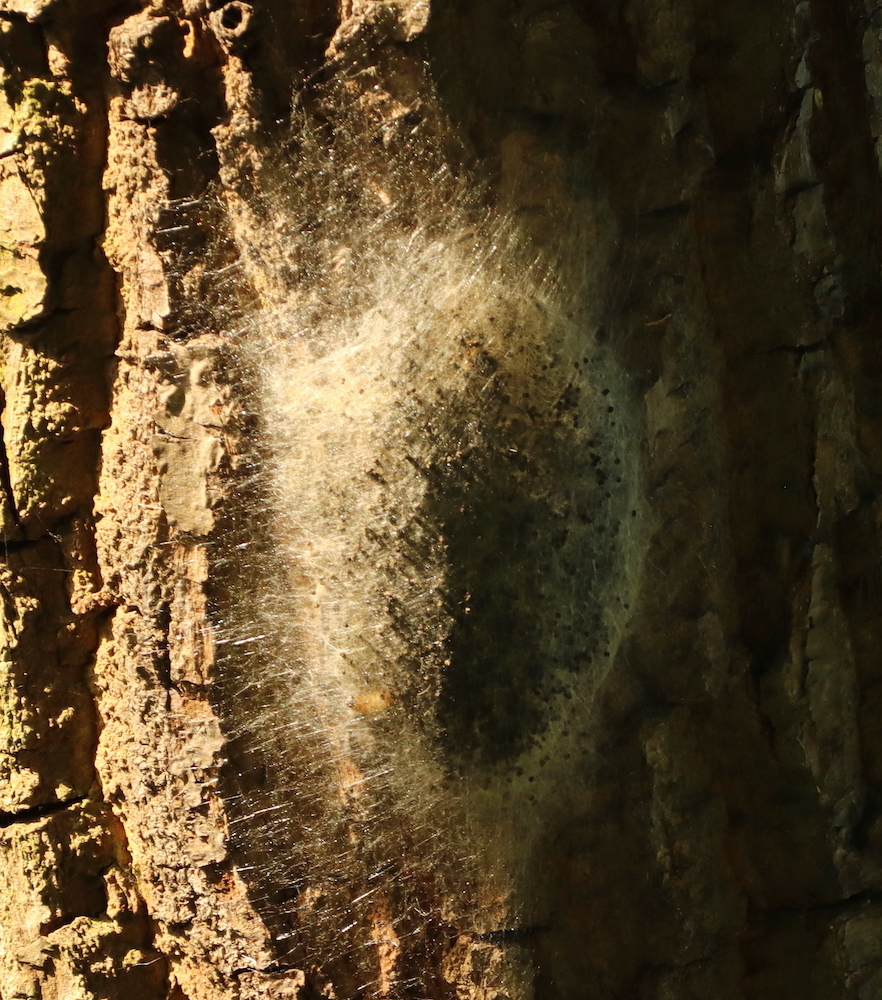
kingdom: Animalia
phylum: Arthropoda
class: Insecta
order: Lepidoptera
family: Notodontidae
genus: Thaumetopoea
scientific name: Thaumetopoea processionea
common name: Oak processionea
